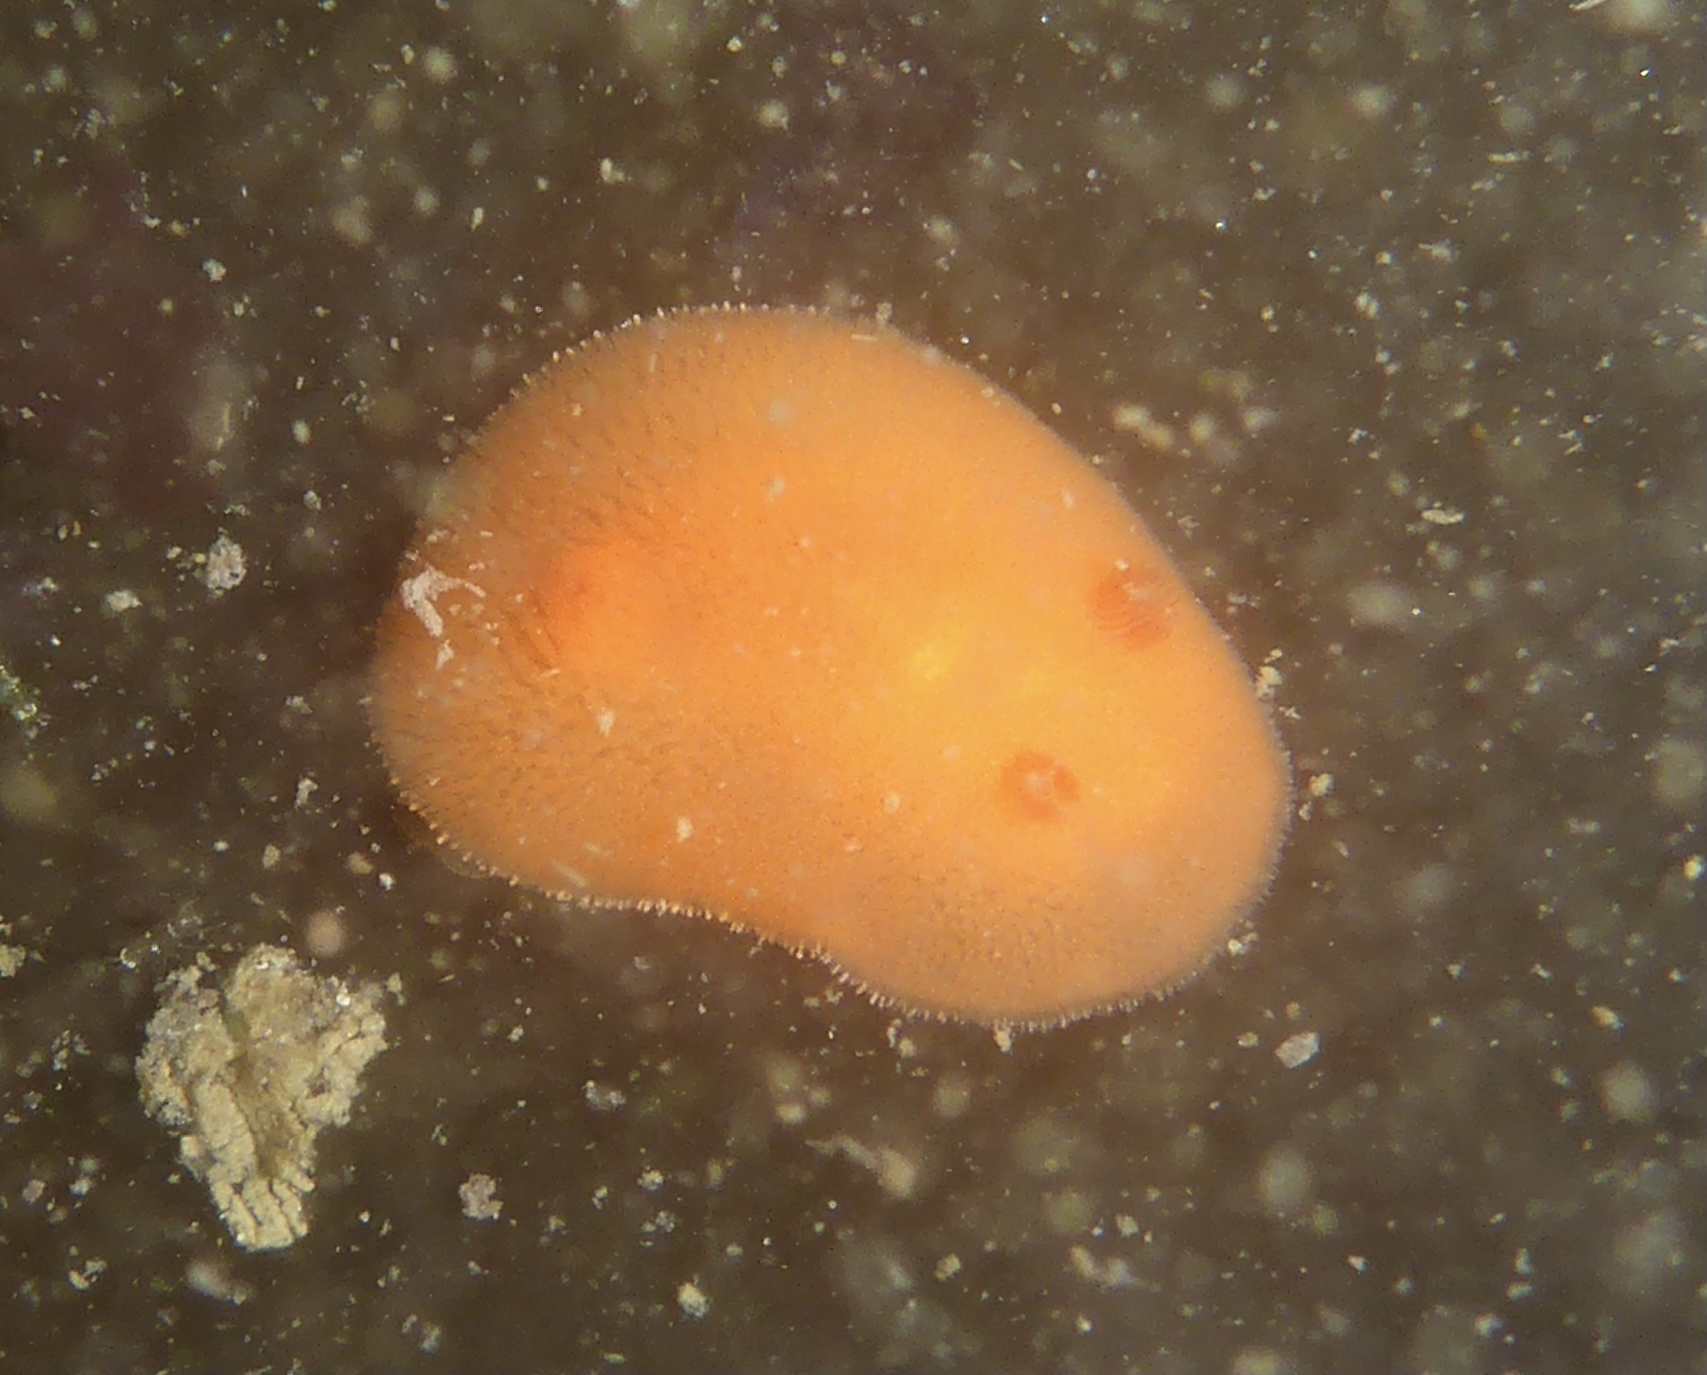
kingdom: Animalia
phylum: Mollusca
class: Gastropoda
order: Nudibranchia
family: Discodorididae
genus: Rostanga
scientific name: Rostanga pulchra
